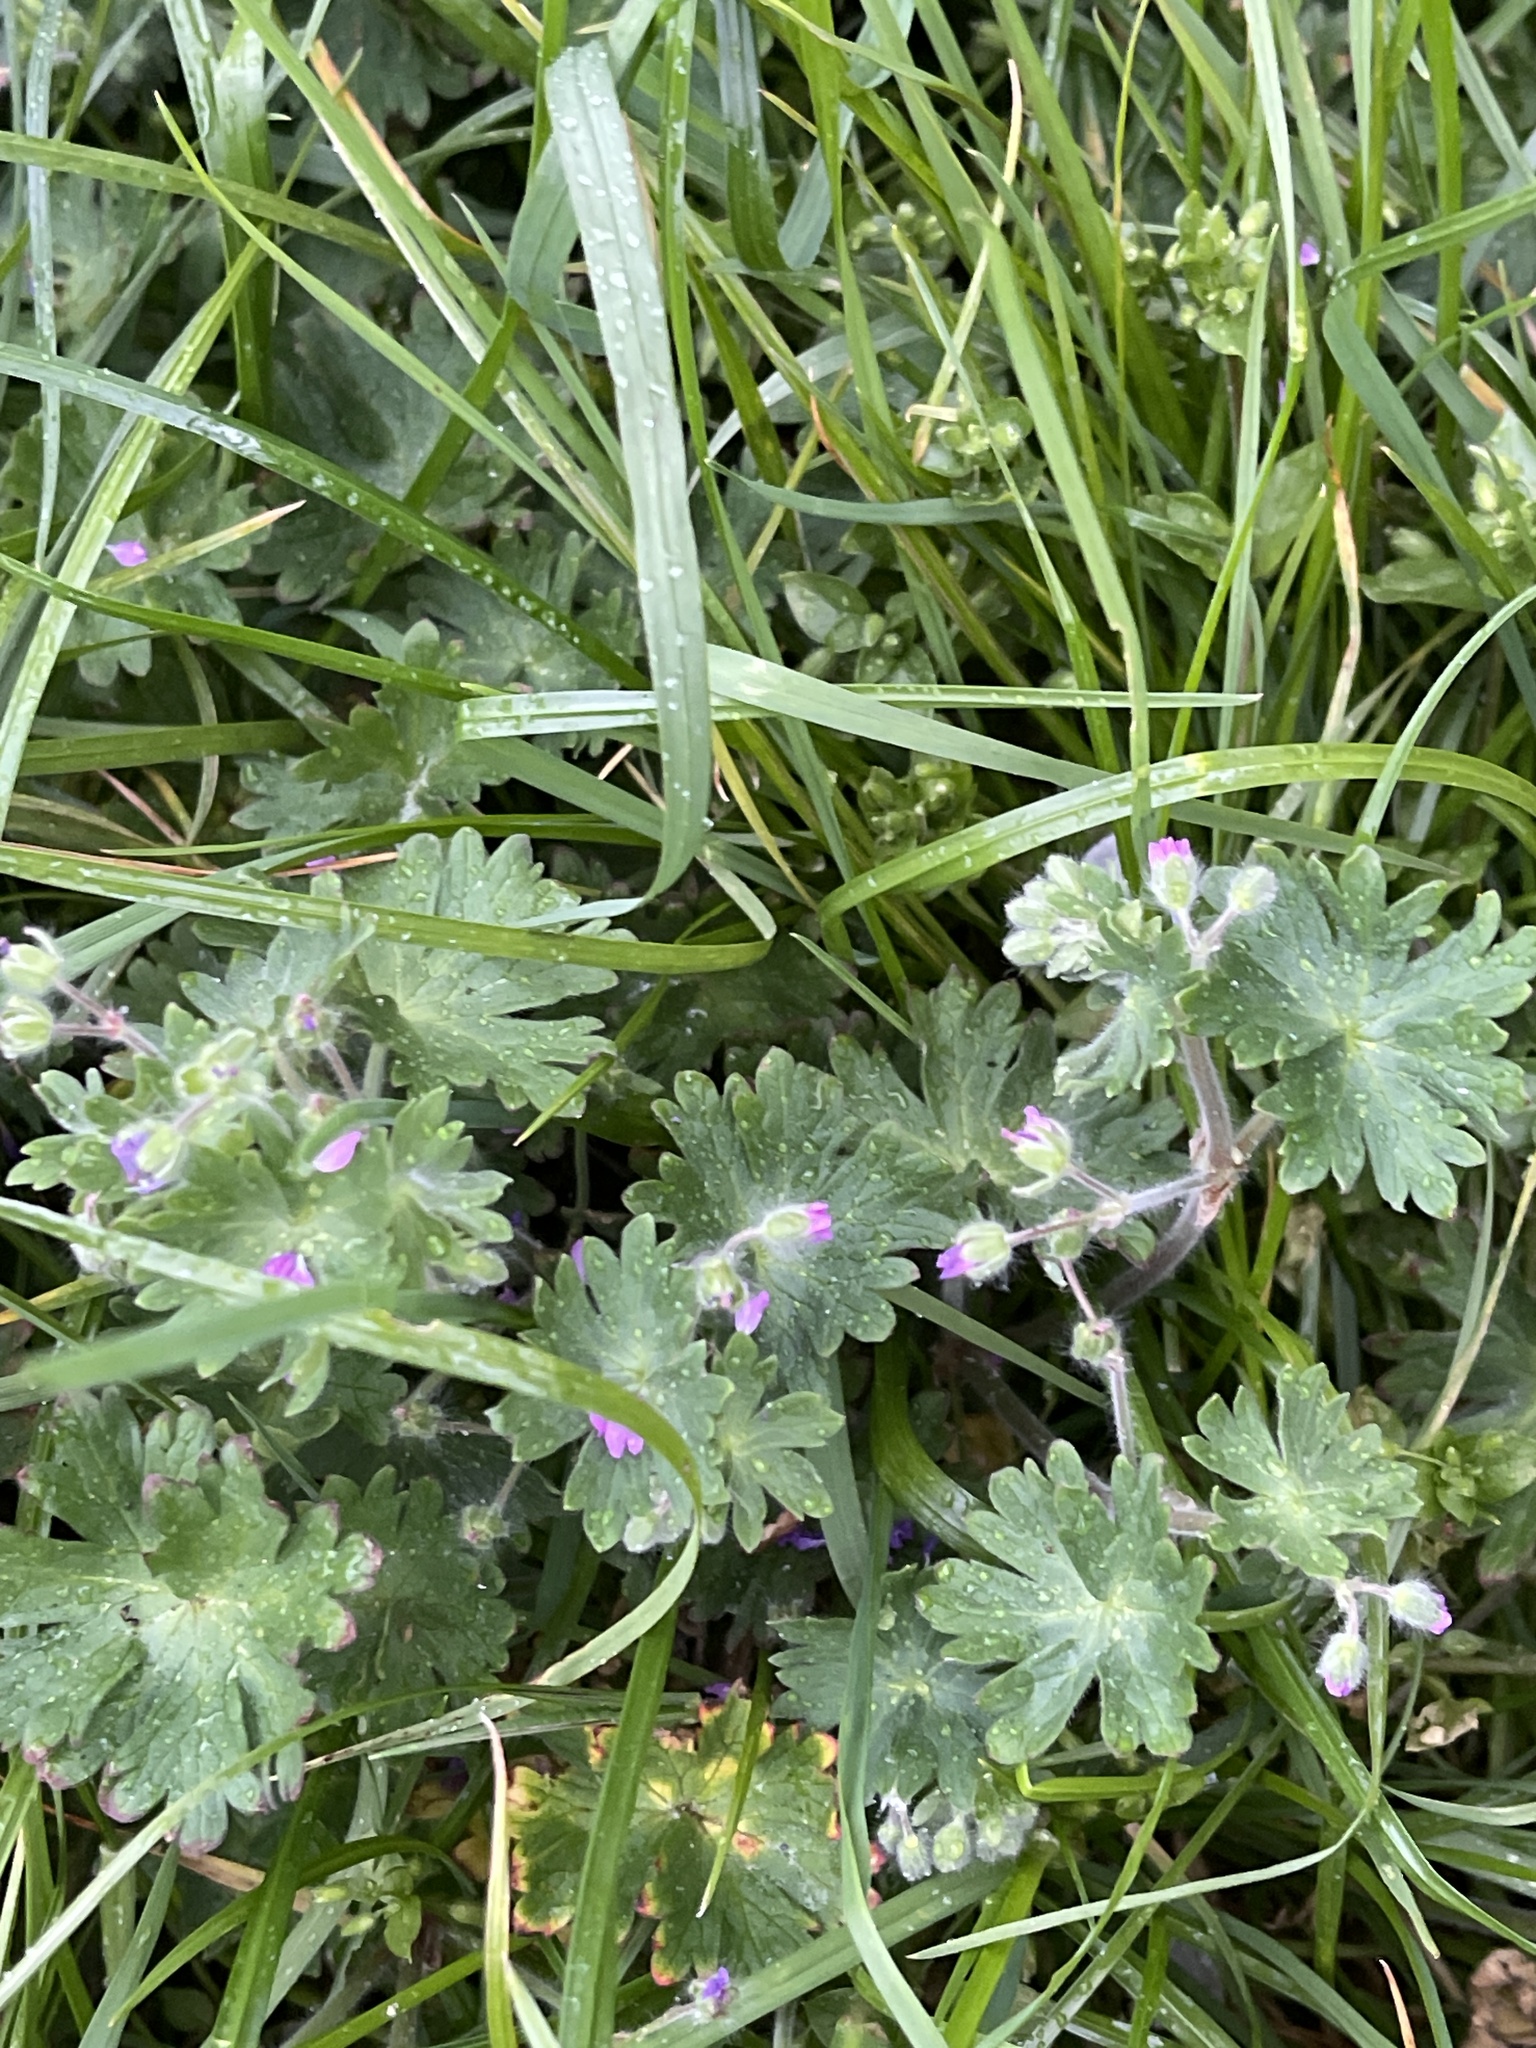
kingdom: Plantae
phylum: Tracheophyta
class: Magnoliopsida
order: Geraniales
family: Geraniaceae
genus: Geranium
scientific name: Geranium molle
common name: Dove's-foot crane's-bill
